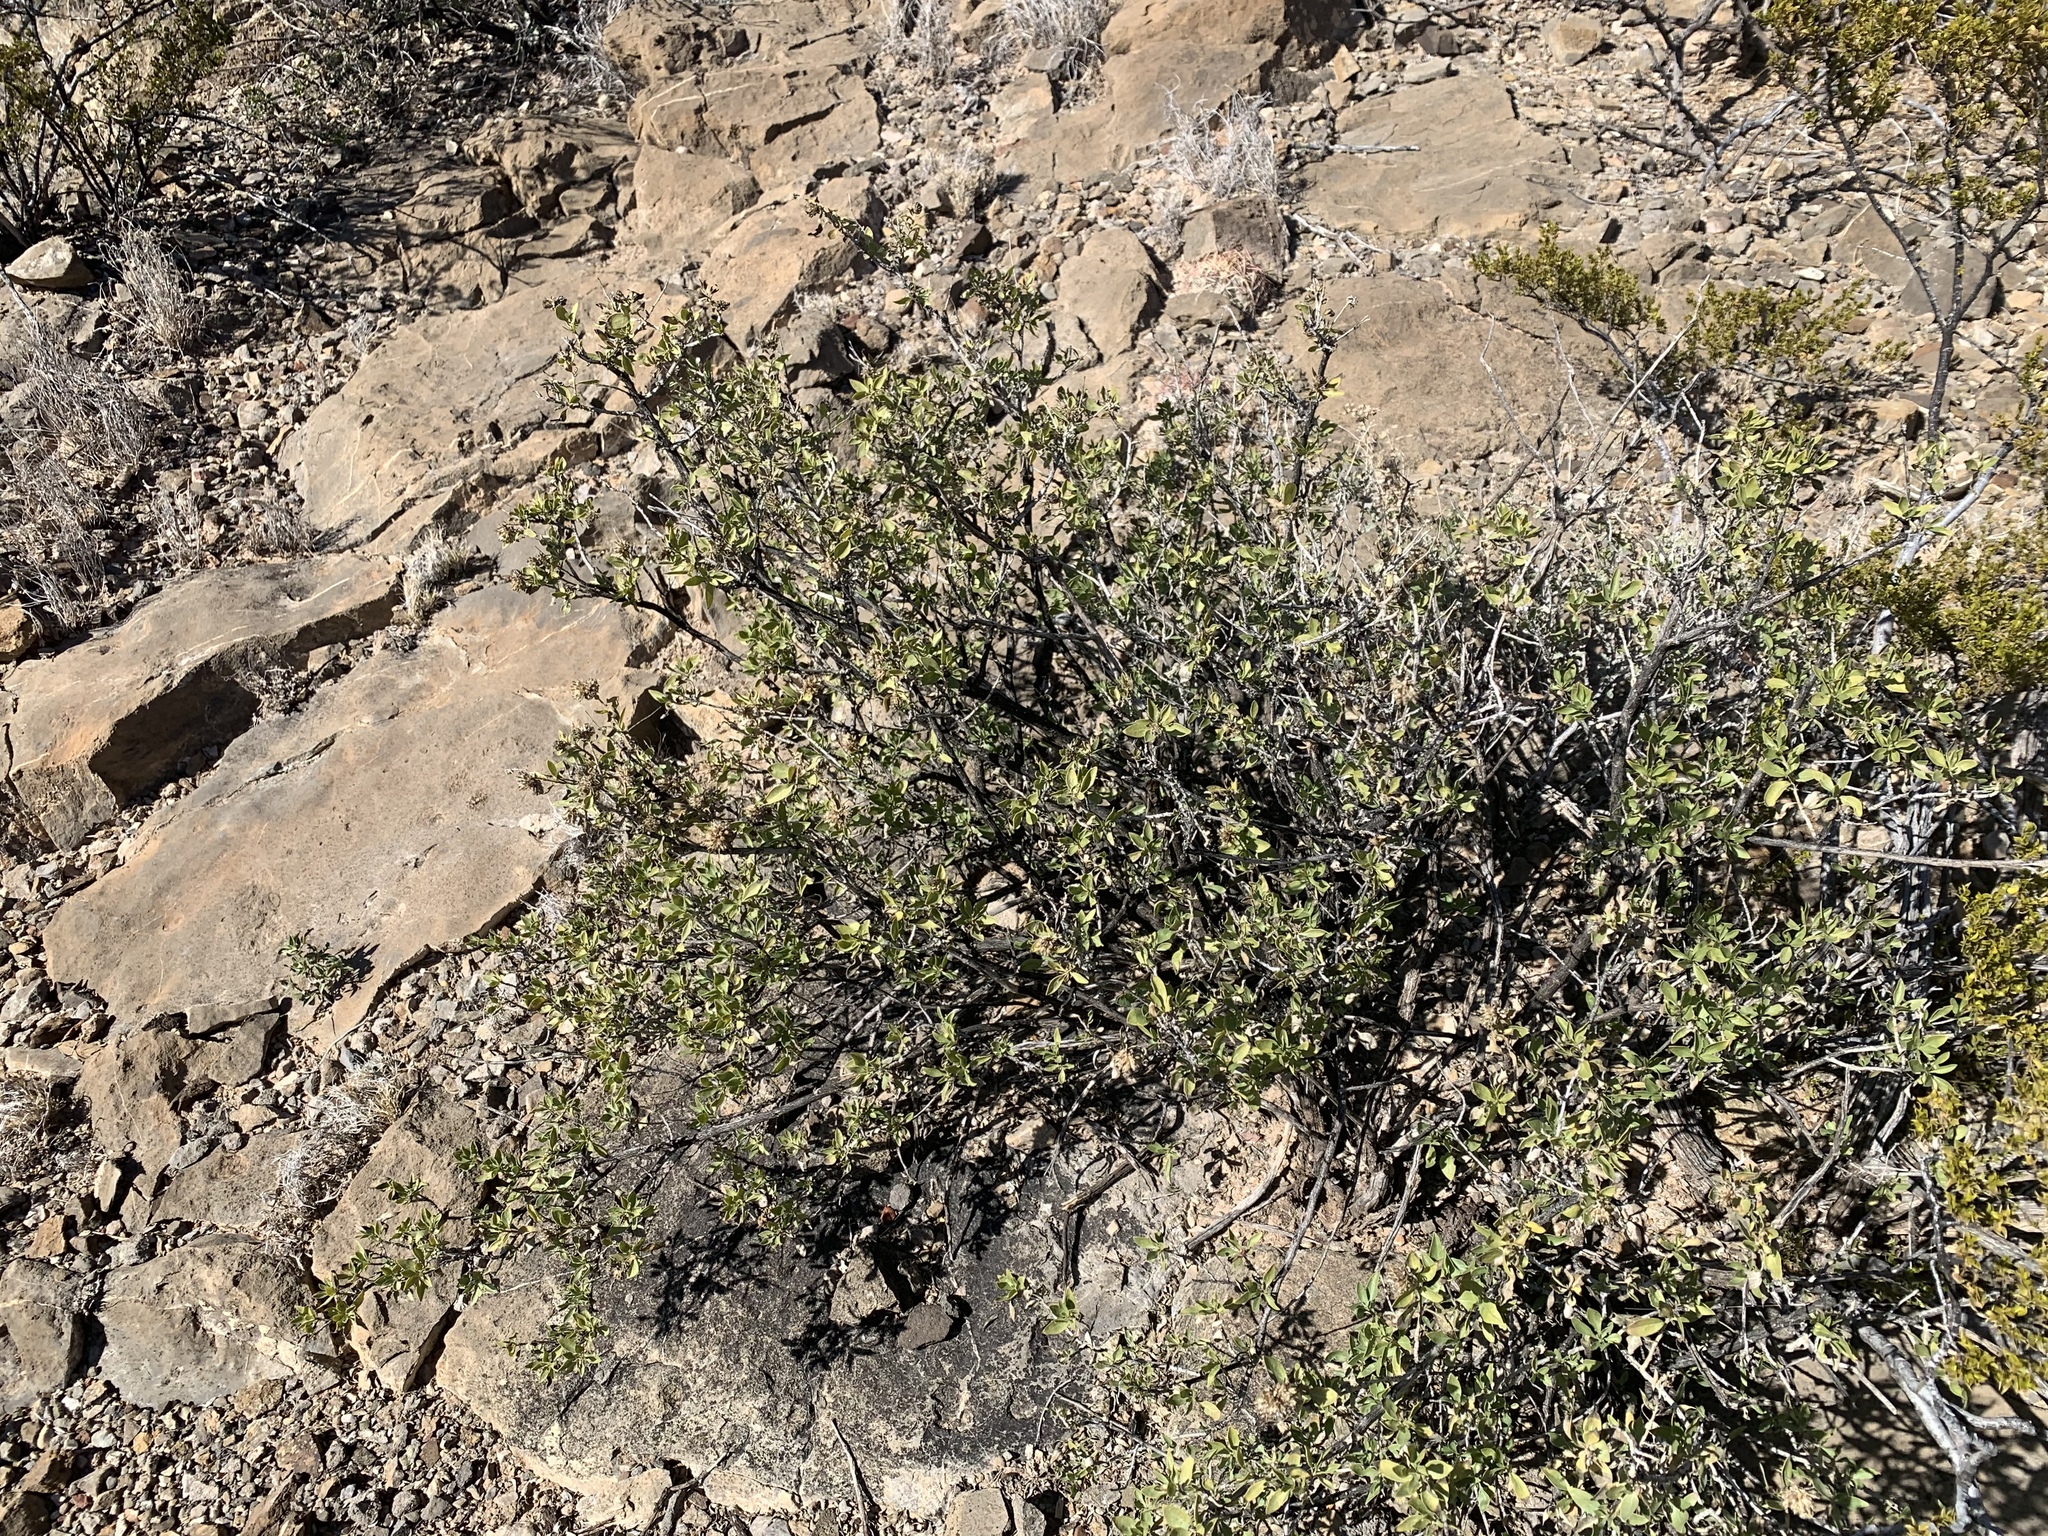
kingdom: Plantae
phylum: Tracheophyta
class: Magnoliopsida
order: Asterales
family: Asteraceae
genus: Flourensia
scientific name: Flourensia cernua
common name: Varnishbush
